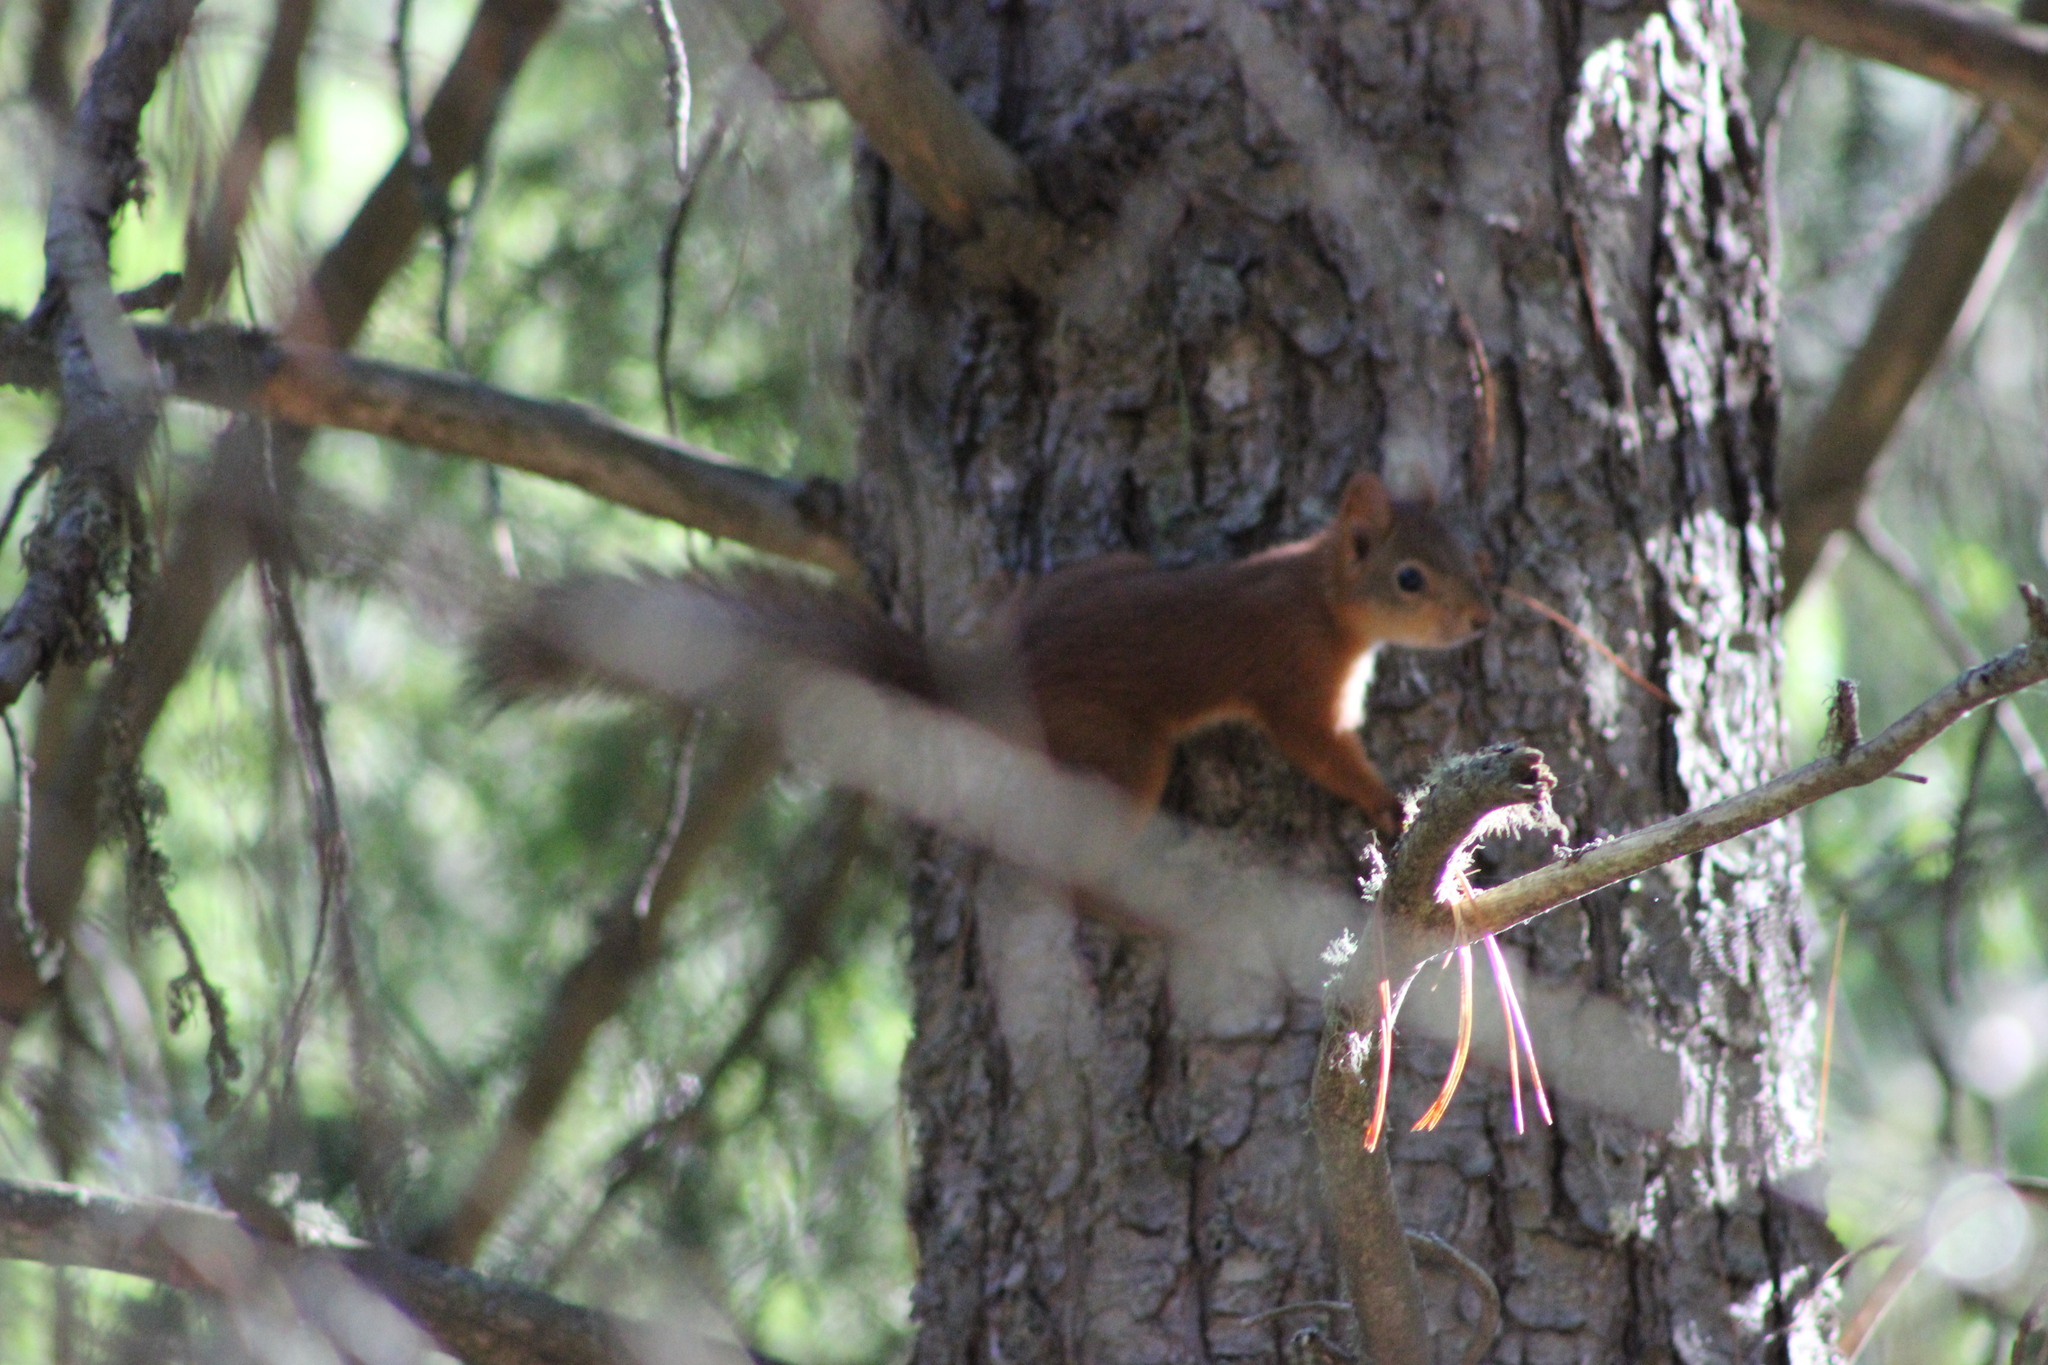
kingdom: Animalia
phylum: Chordata
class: Mammalia
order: Rodentia
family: Sciuridae
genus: Sciurus
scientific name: Sciurus vulgaris
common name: Eurasian red squirrel
